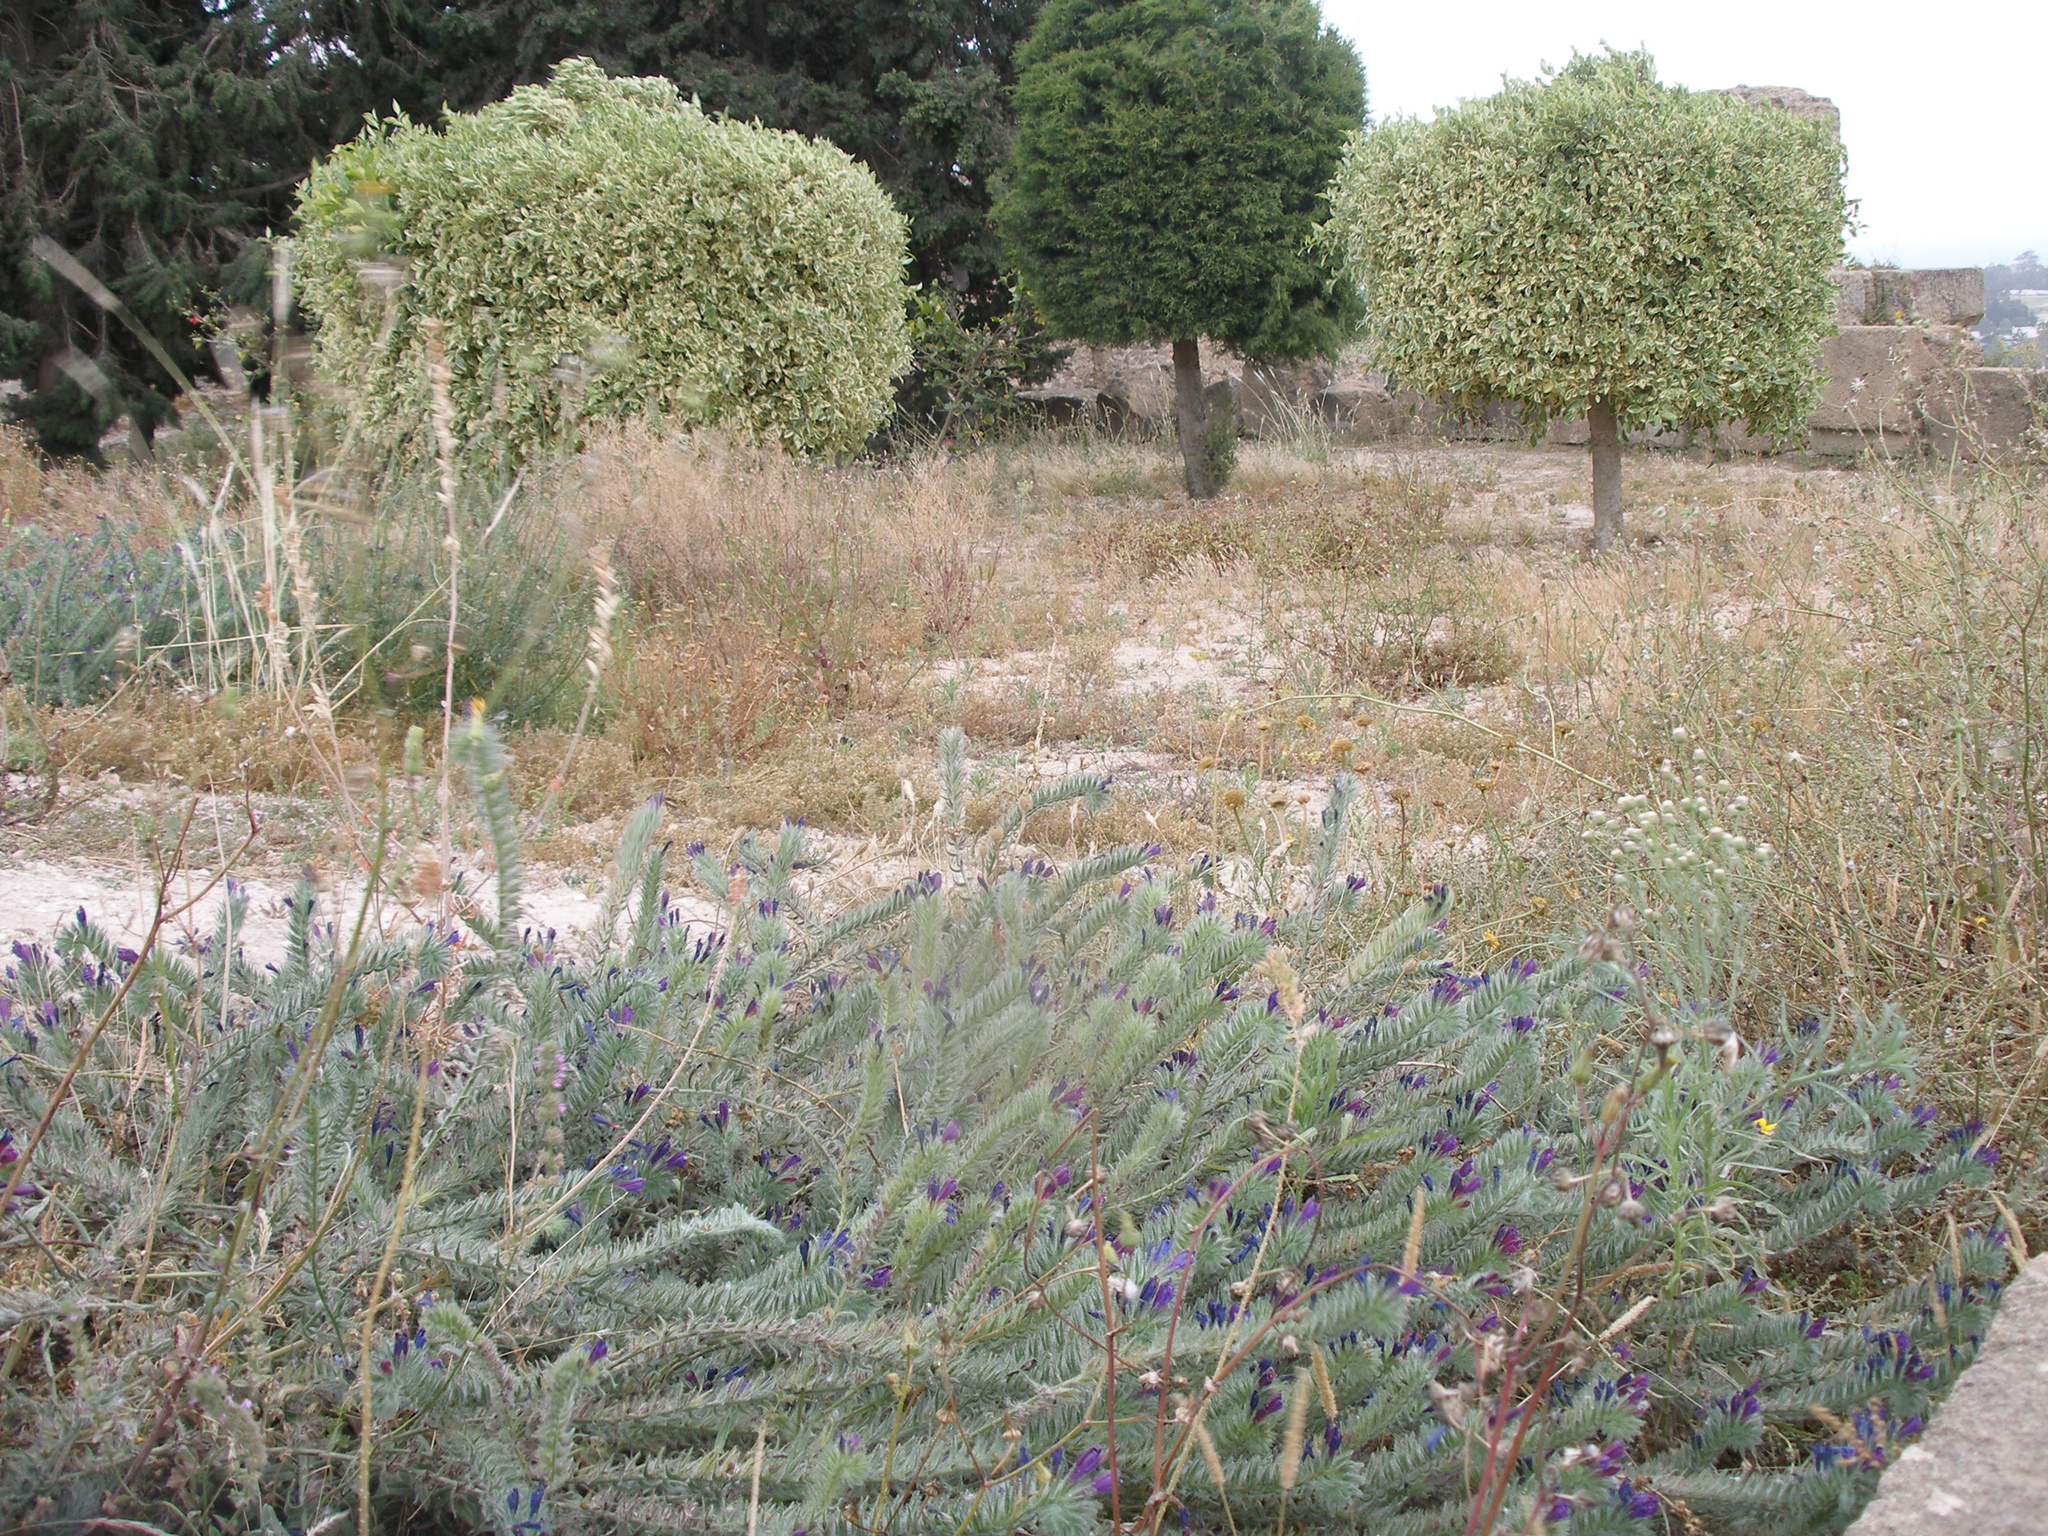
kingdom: Plantae
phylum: Tracheophyta
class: Magnoliopsida
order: Boraginales
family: Boraginaceae
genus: Echium
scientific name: Echium sabulicola
